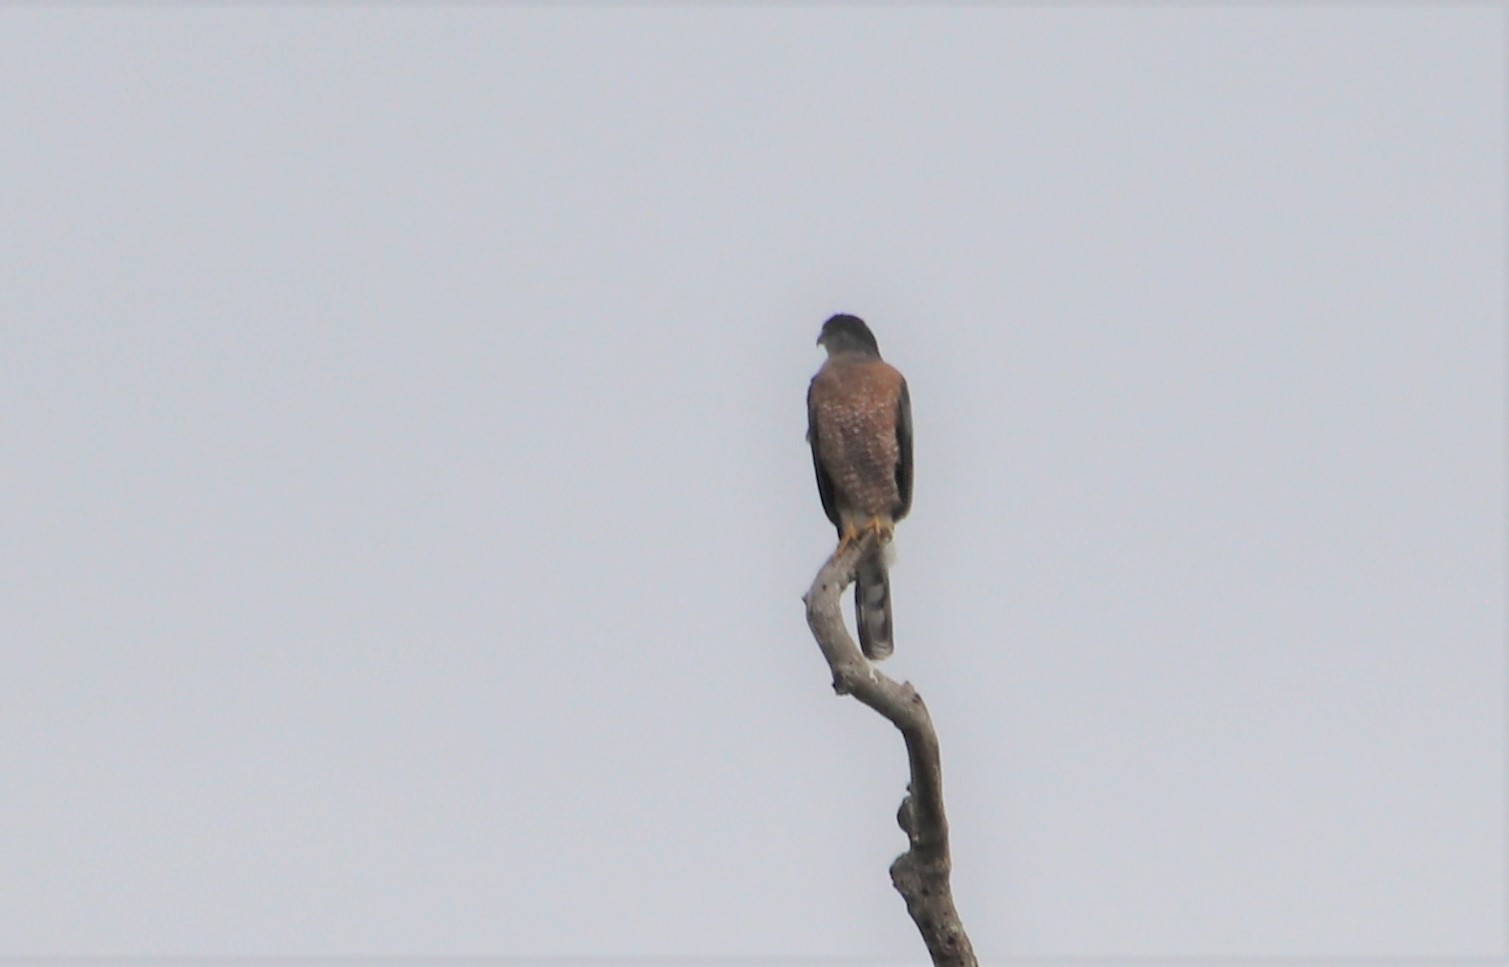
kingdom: Animalia
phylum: Chordata
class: Aves
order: Accipitriformes
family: Accipitridae
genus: Accipiter
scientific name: Accipiter cooperii
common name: Cooper's hawk
